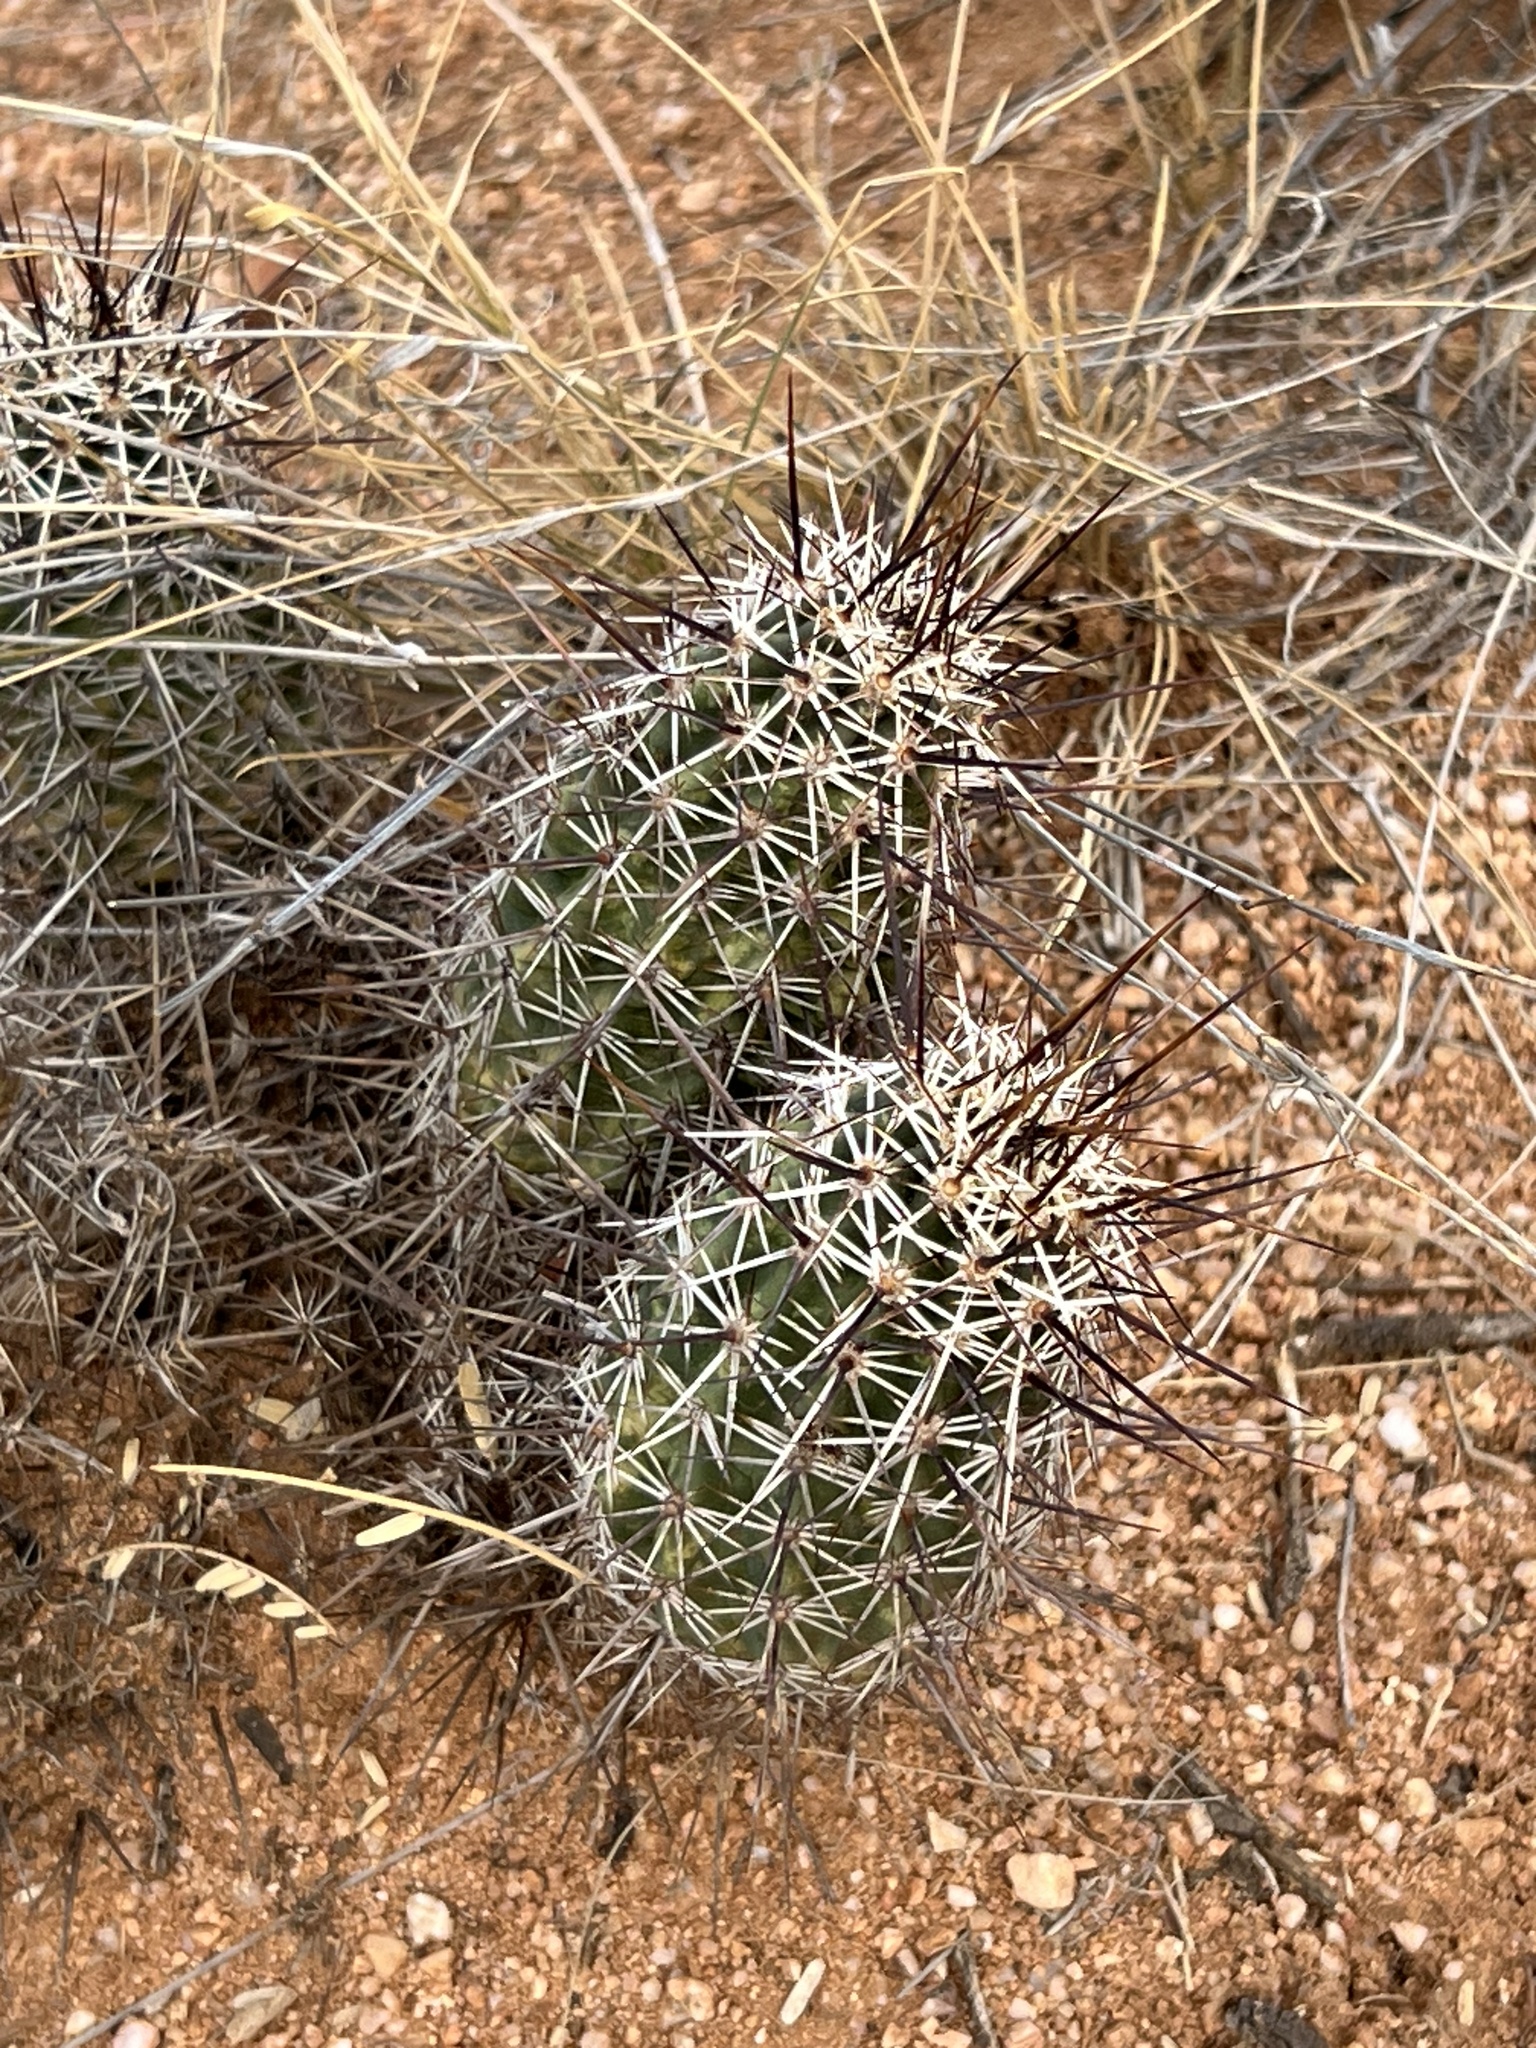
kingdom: Plantae
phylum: Tracheophyta
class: Magnoliopsida
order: Caryophyllales
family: Cactaceae
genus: Echinocereus
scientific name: Echinocereus fasciculatus
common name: Bundle hedgehog
